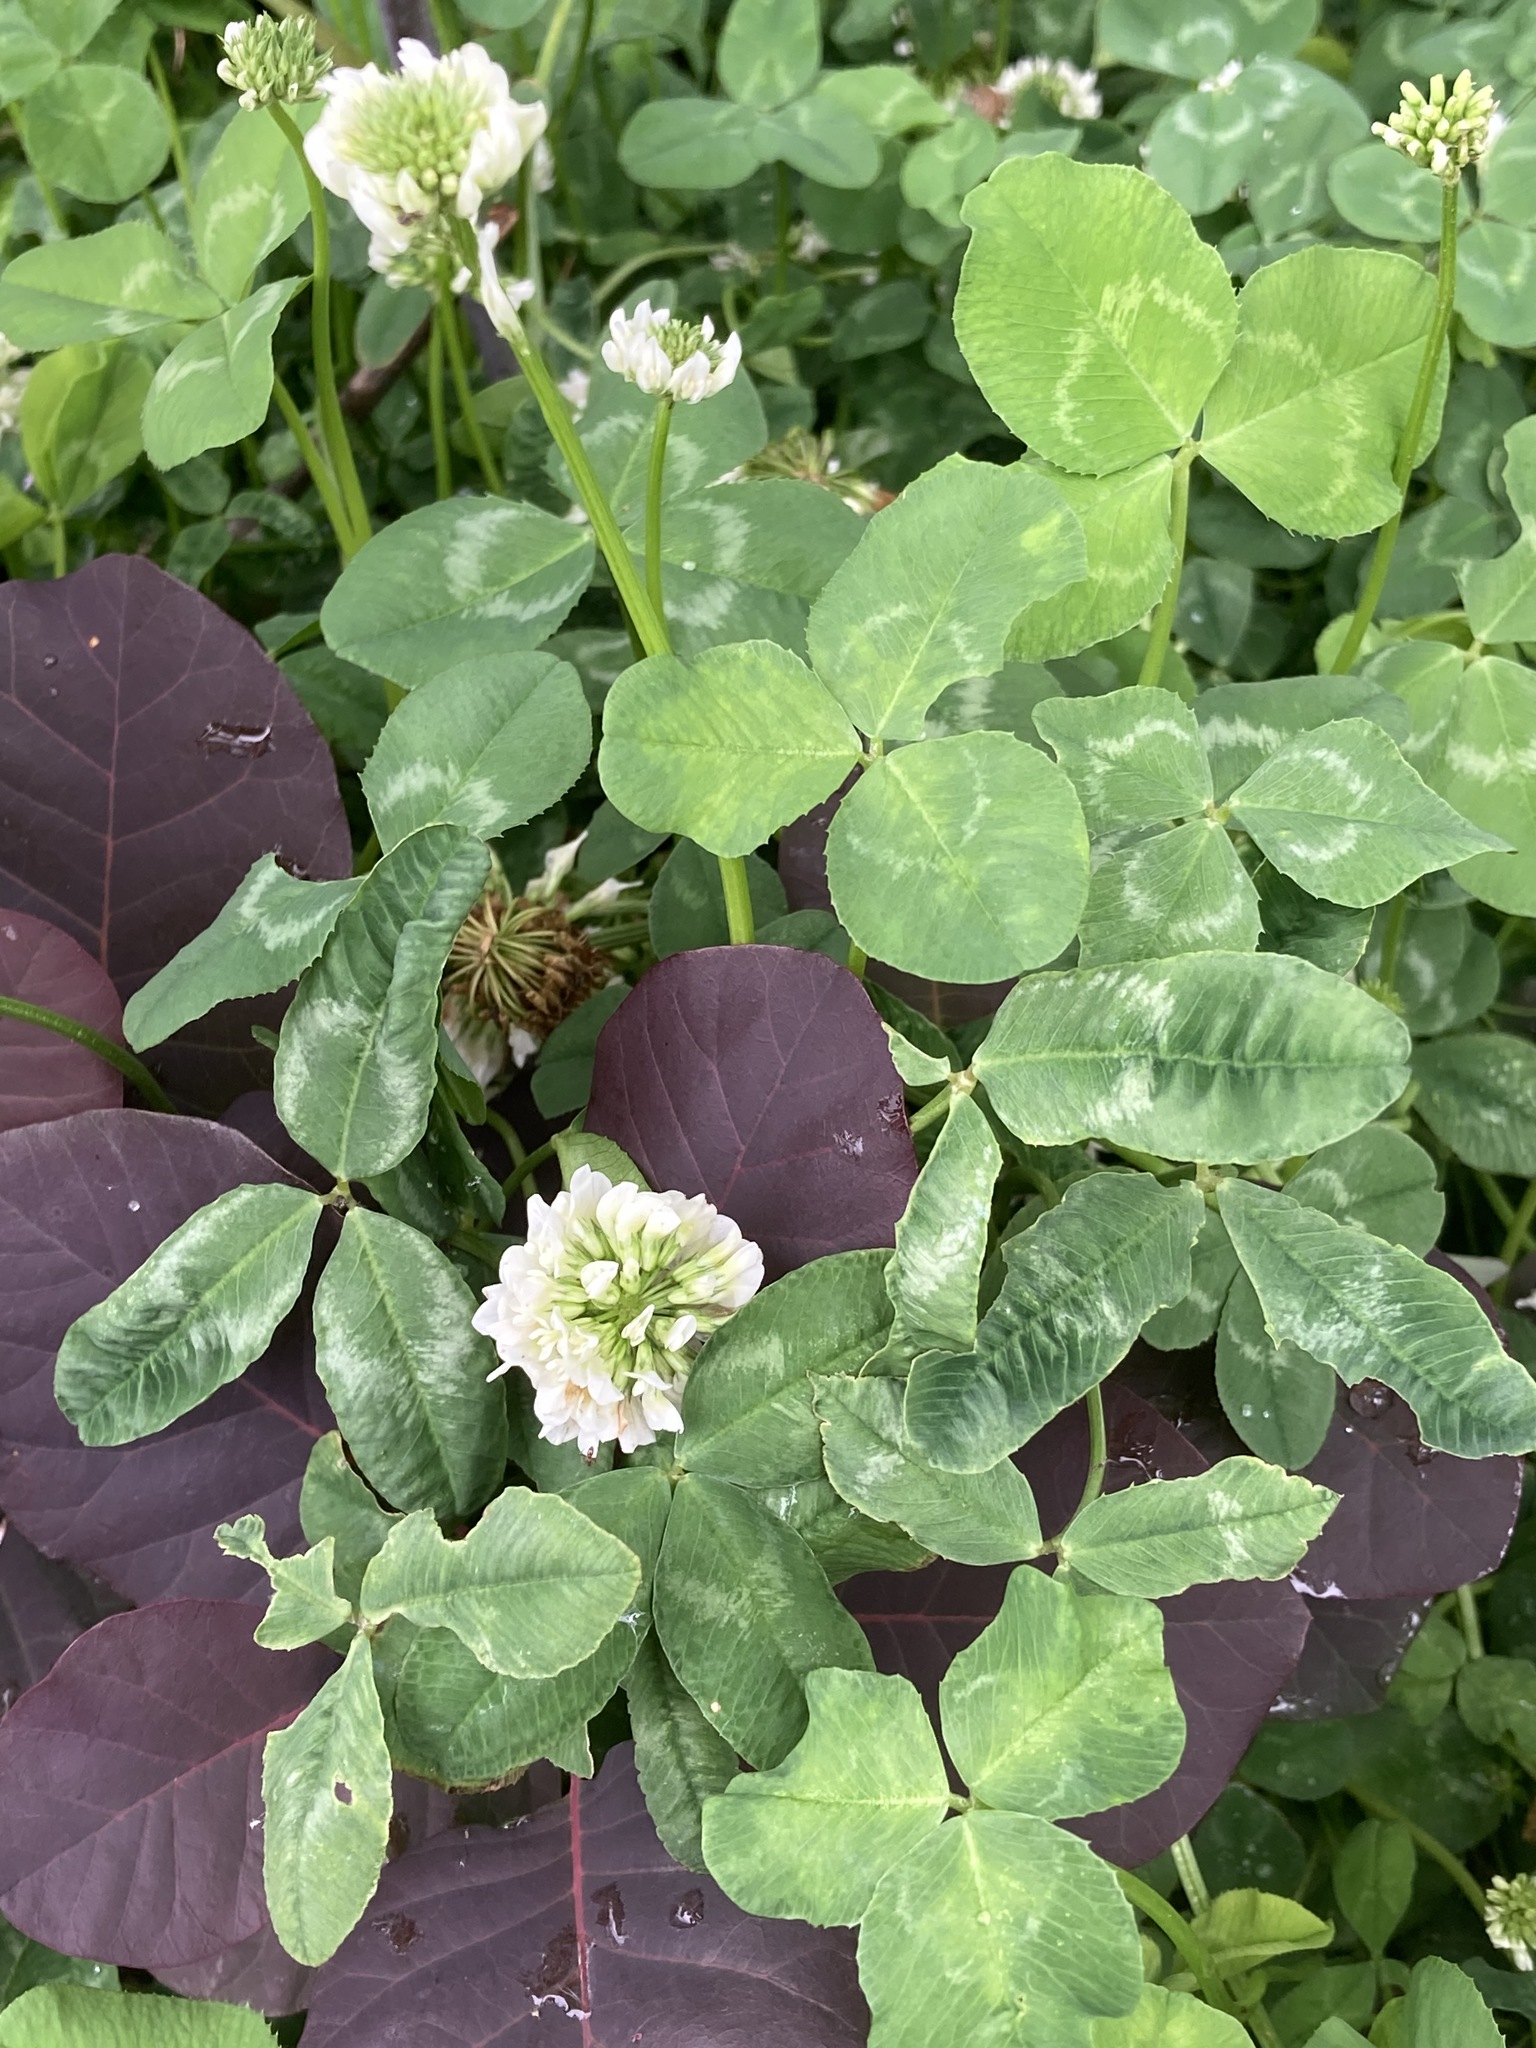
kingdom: Plantae
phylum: Tracheophyta
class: Magnoliopsida
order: Fabales
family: Fabaceae
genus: Trifolium
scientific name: Trifolium repens
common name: White clover
